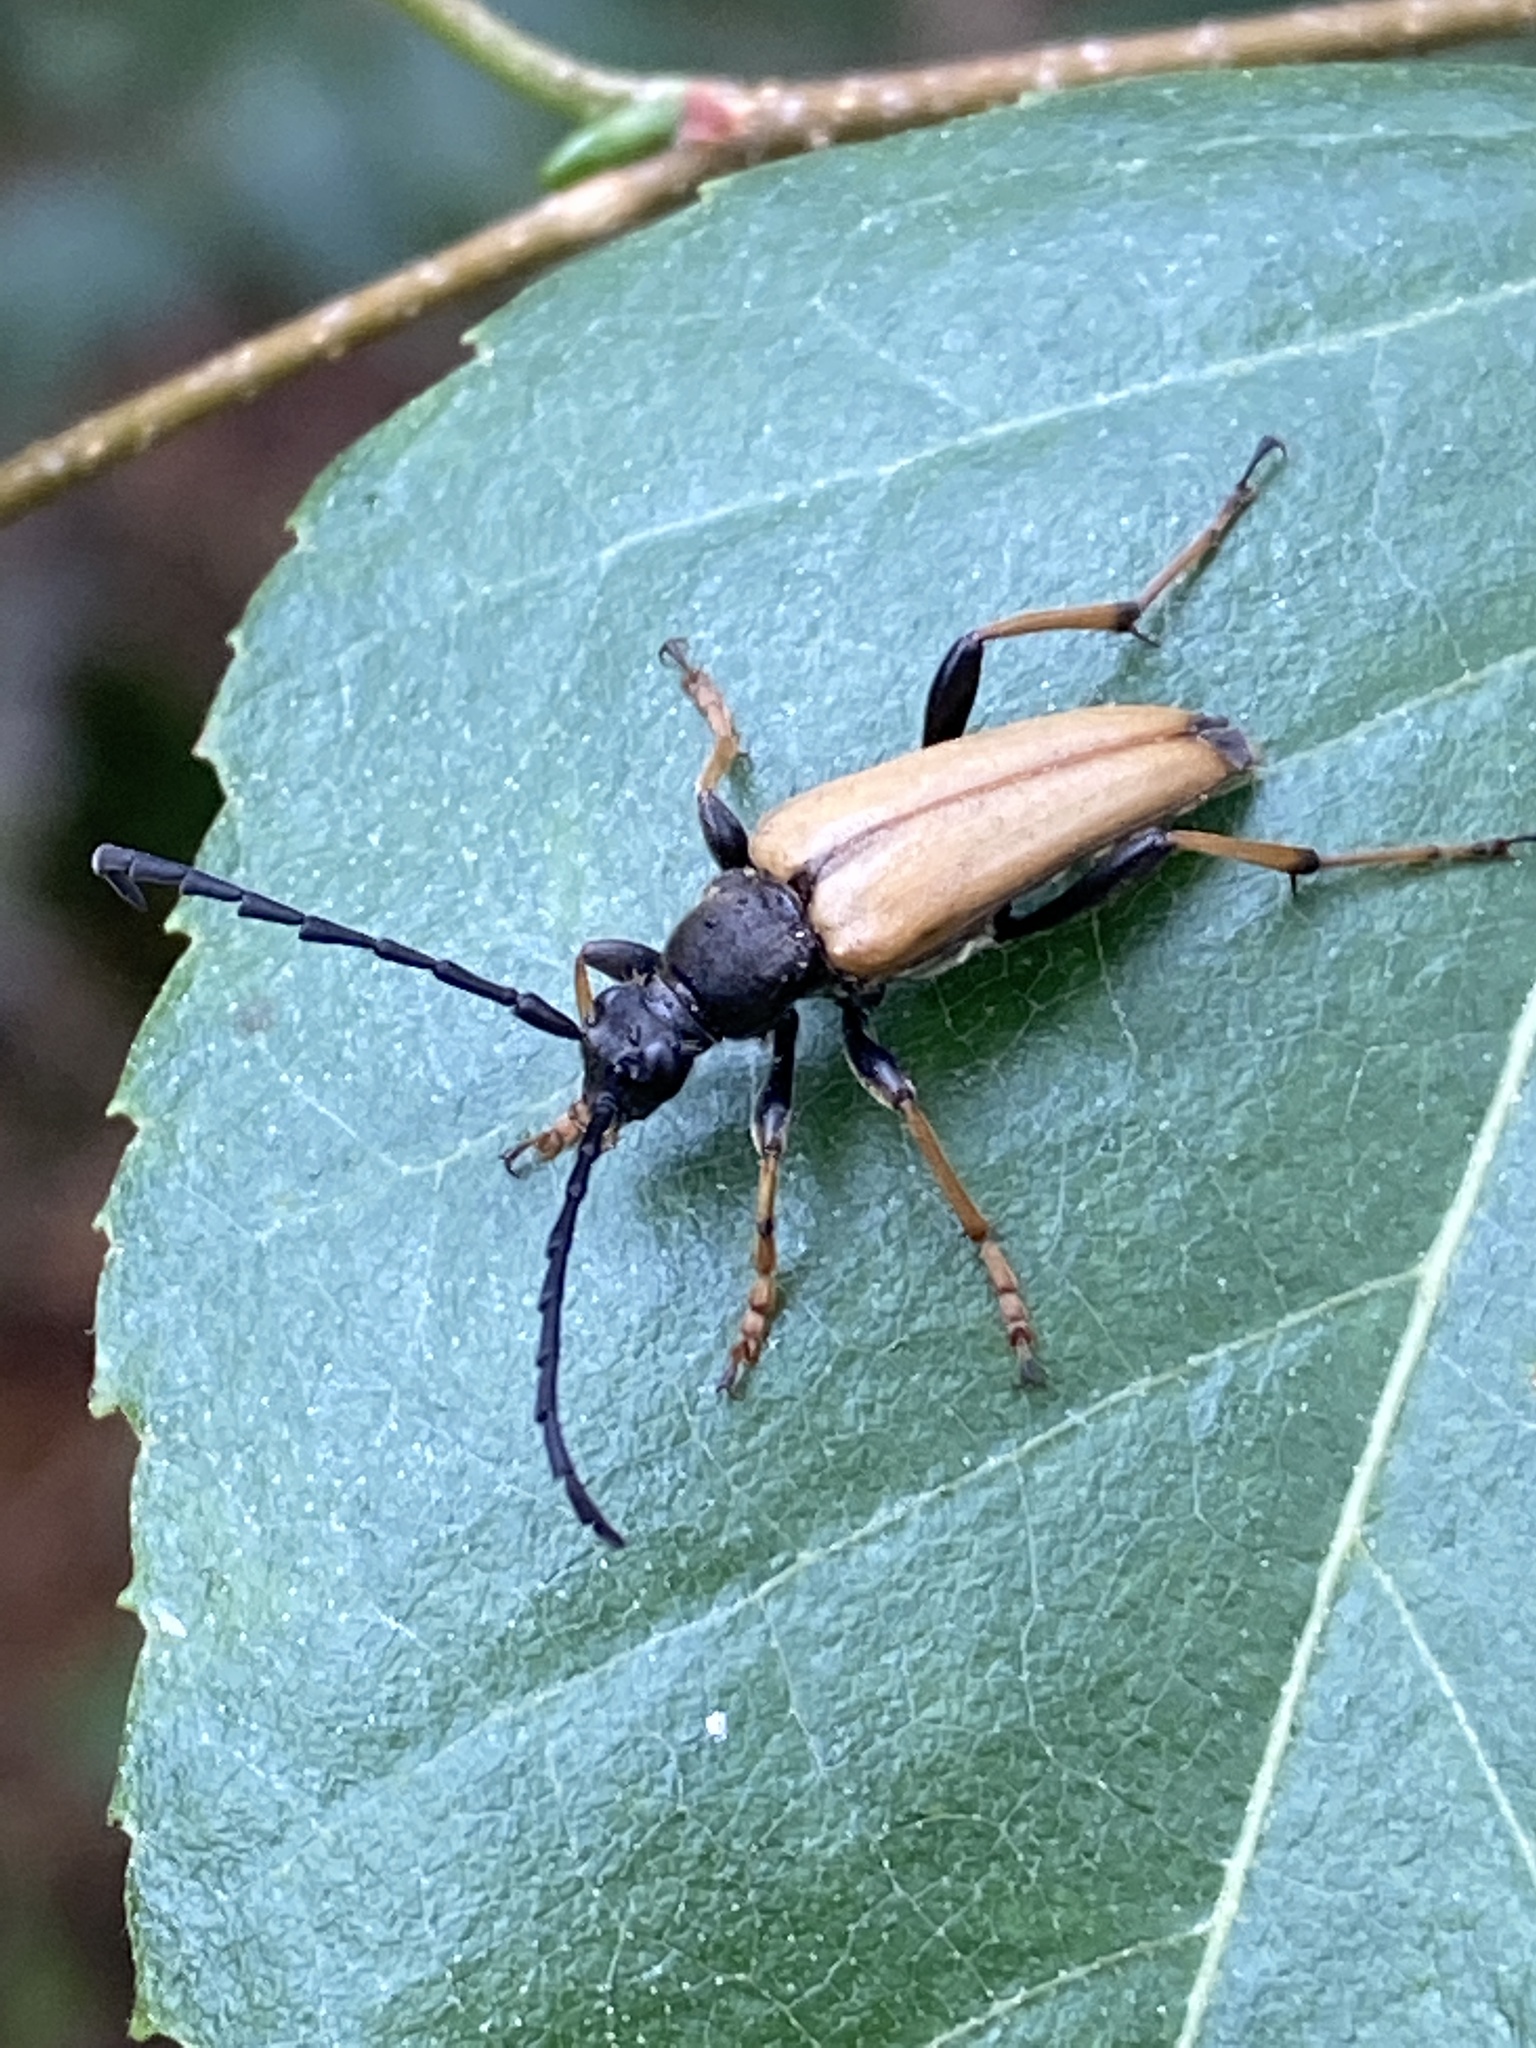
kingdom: Animalia
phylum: Arthropoda
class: Insecta
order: Coleoptera
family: Cerambycidae
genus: Stictoleptura
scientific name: Stictoleptura rubra
